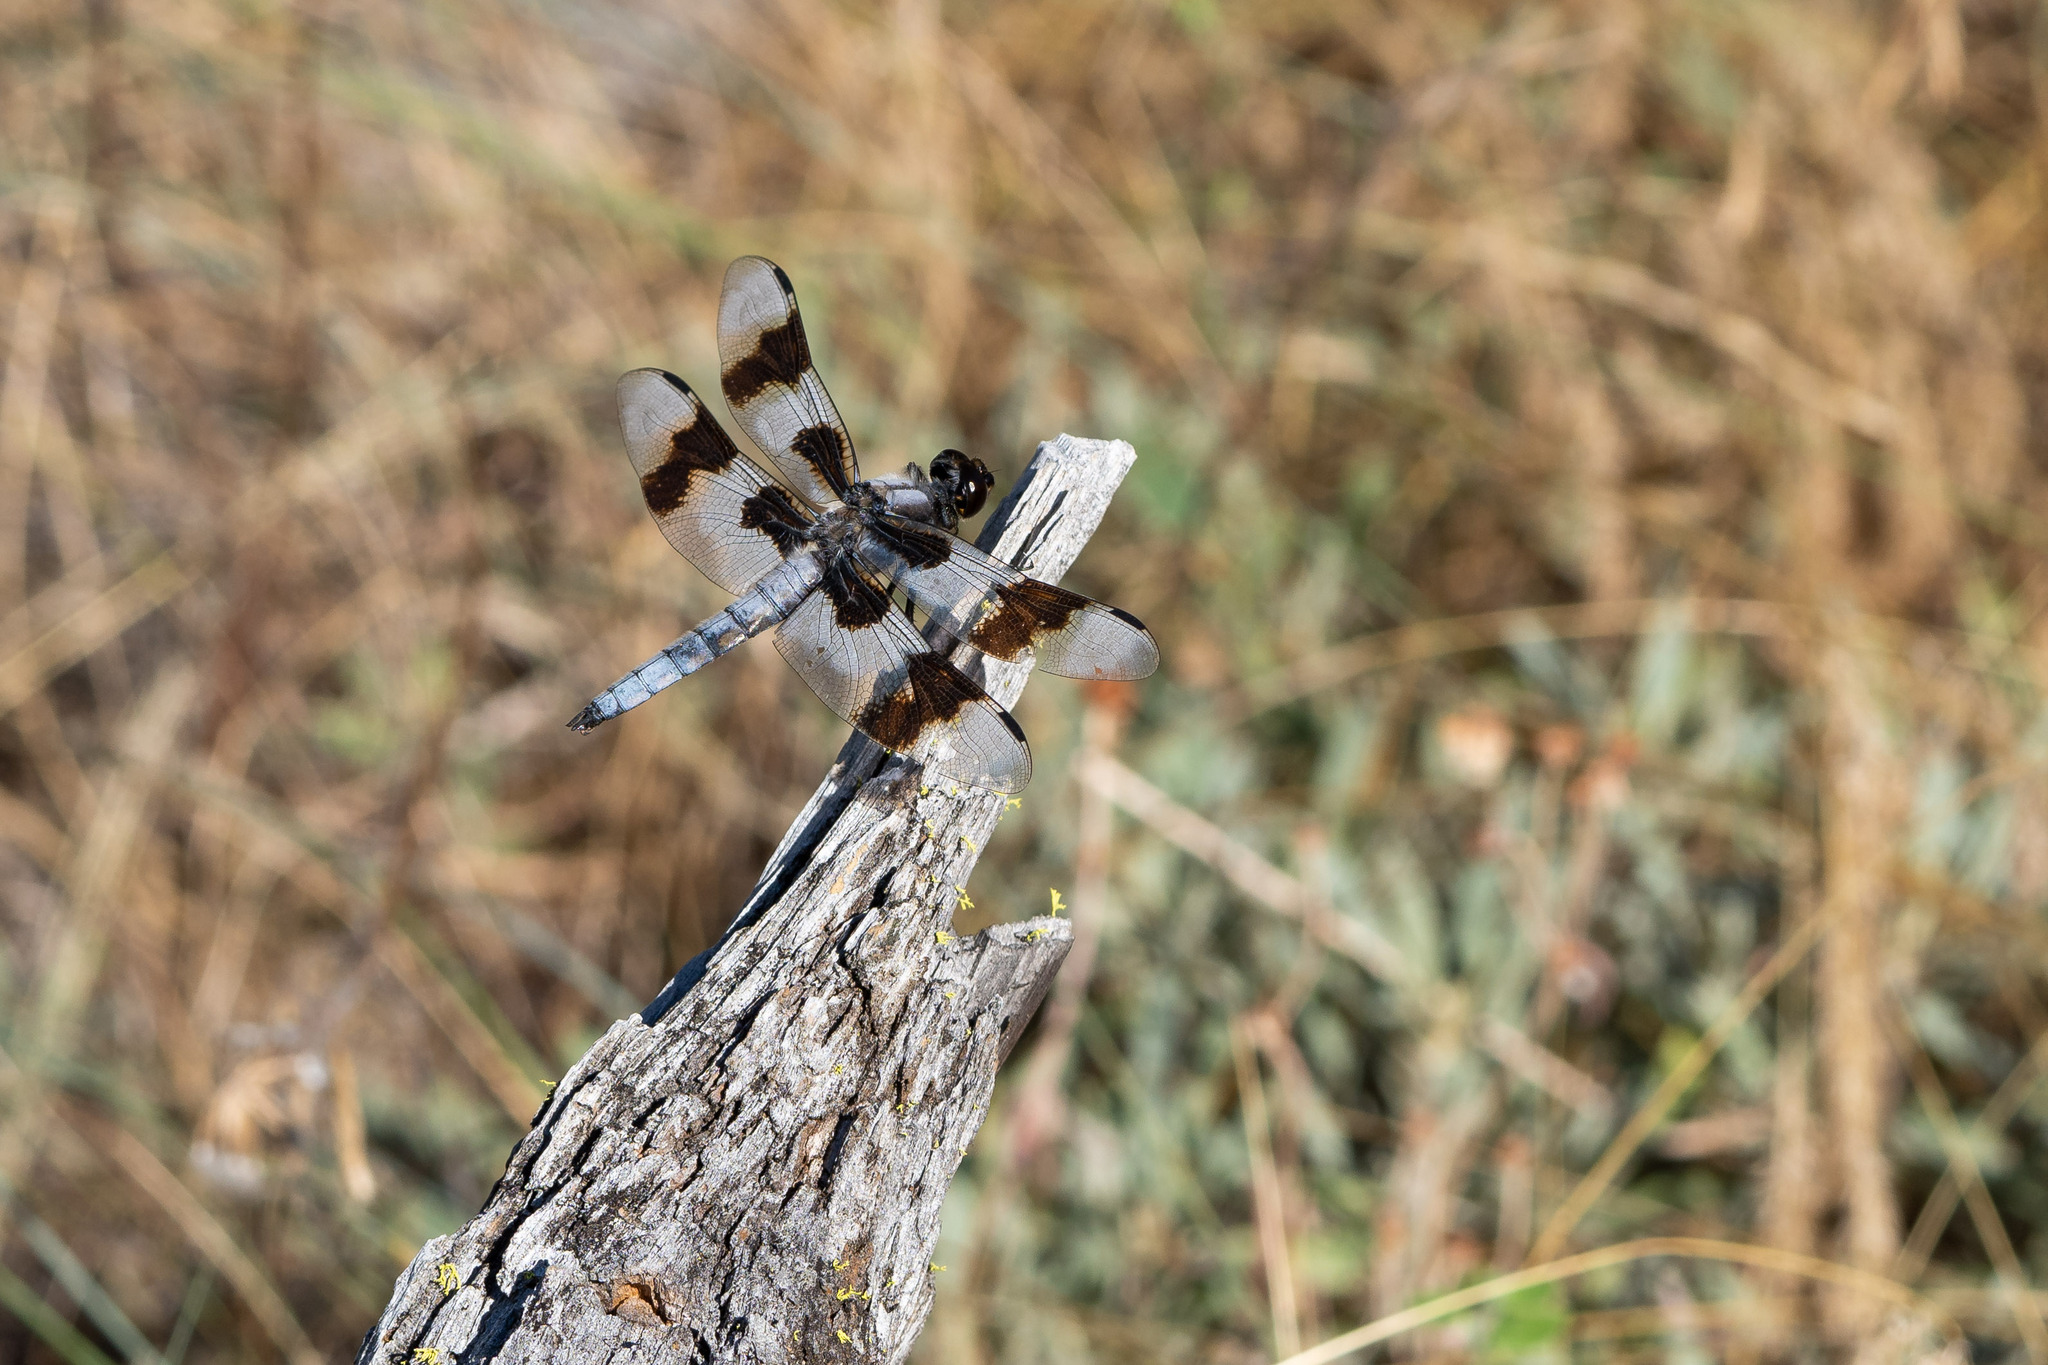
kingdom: Animalia
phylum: Arthropoda
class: Insecta
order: Odonata
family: Libellulidae
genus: Libellula
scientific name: Libellula forensis
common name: Eight-spotted skimmer
